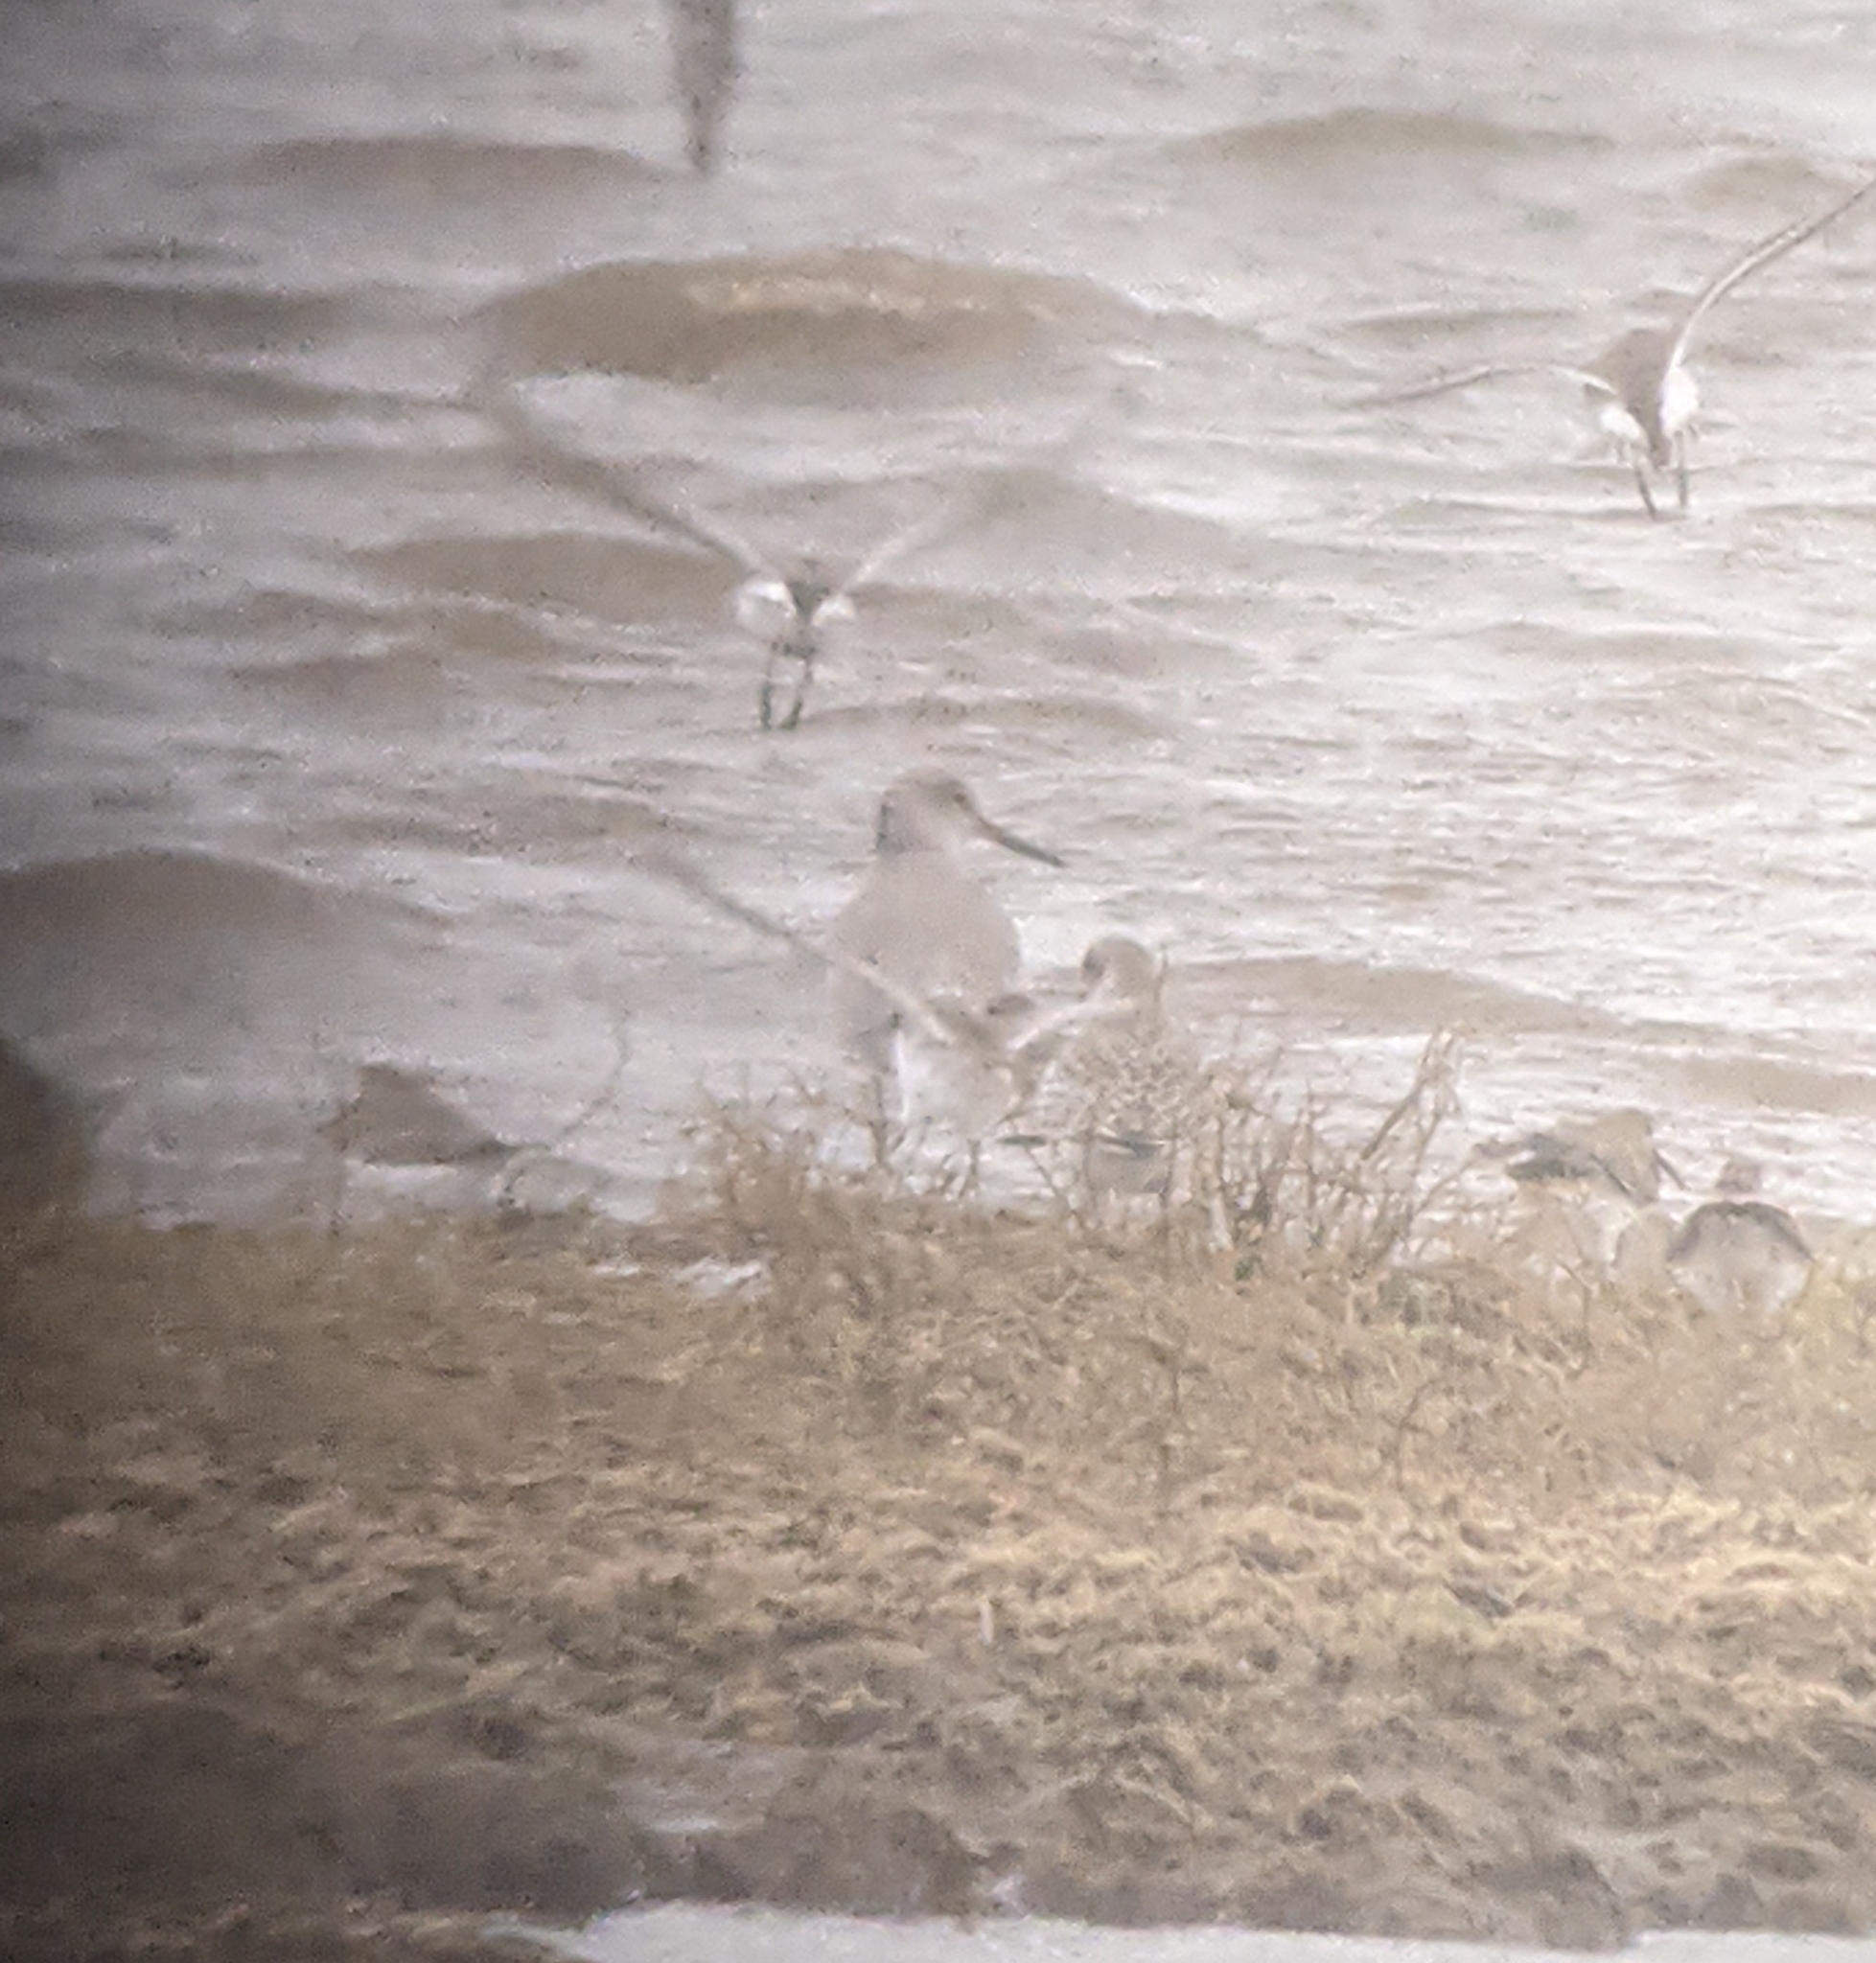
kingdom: Animalia
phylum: Chordata
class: Aves
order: Charadriiformes
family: Scolopacidae
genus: Tringa
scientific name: Tringa semipalmata
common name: Willet
